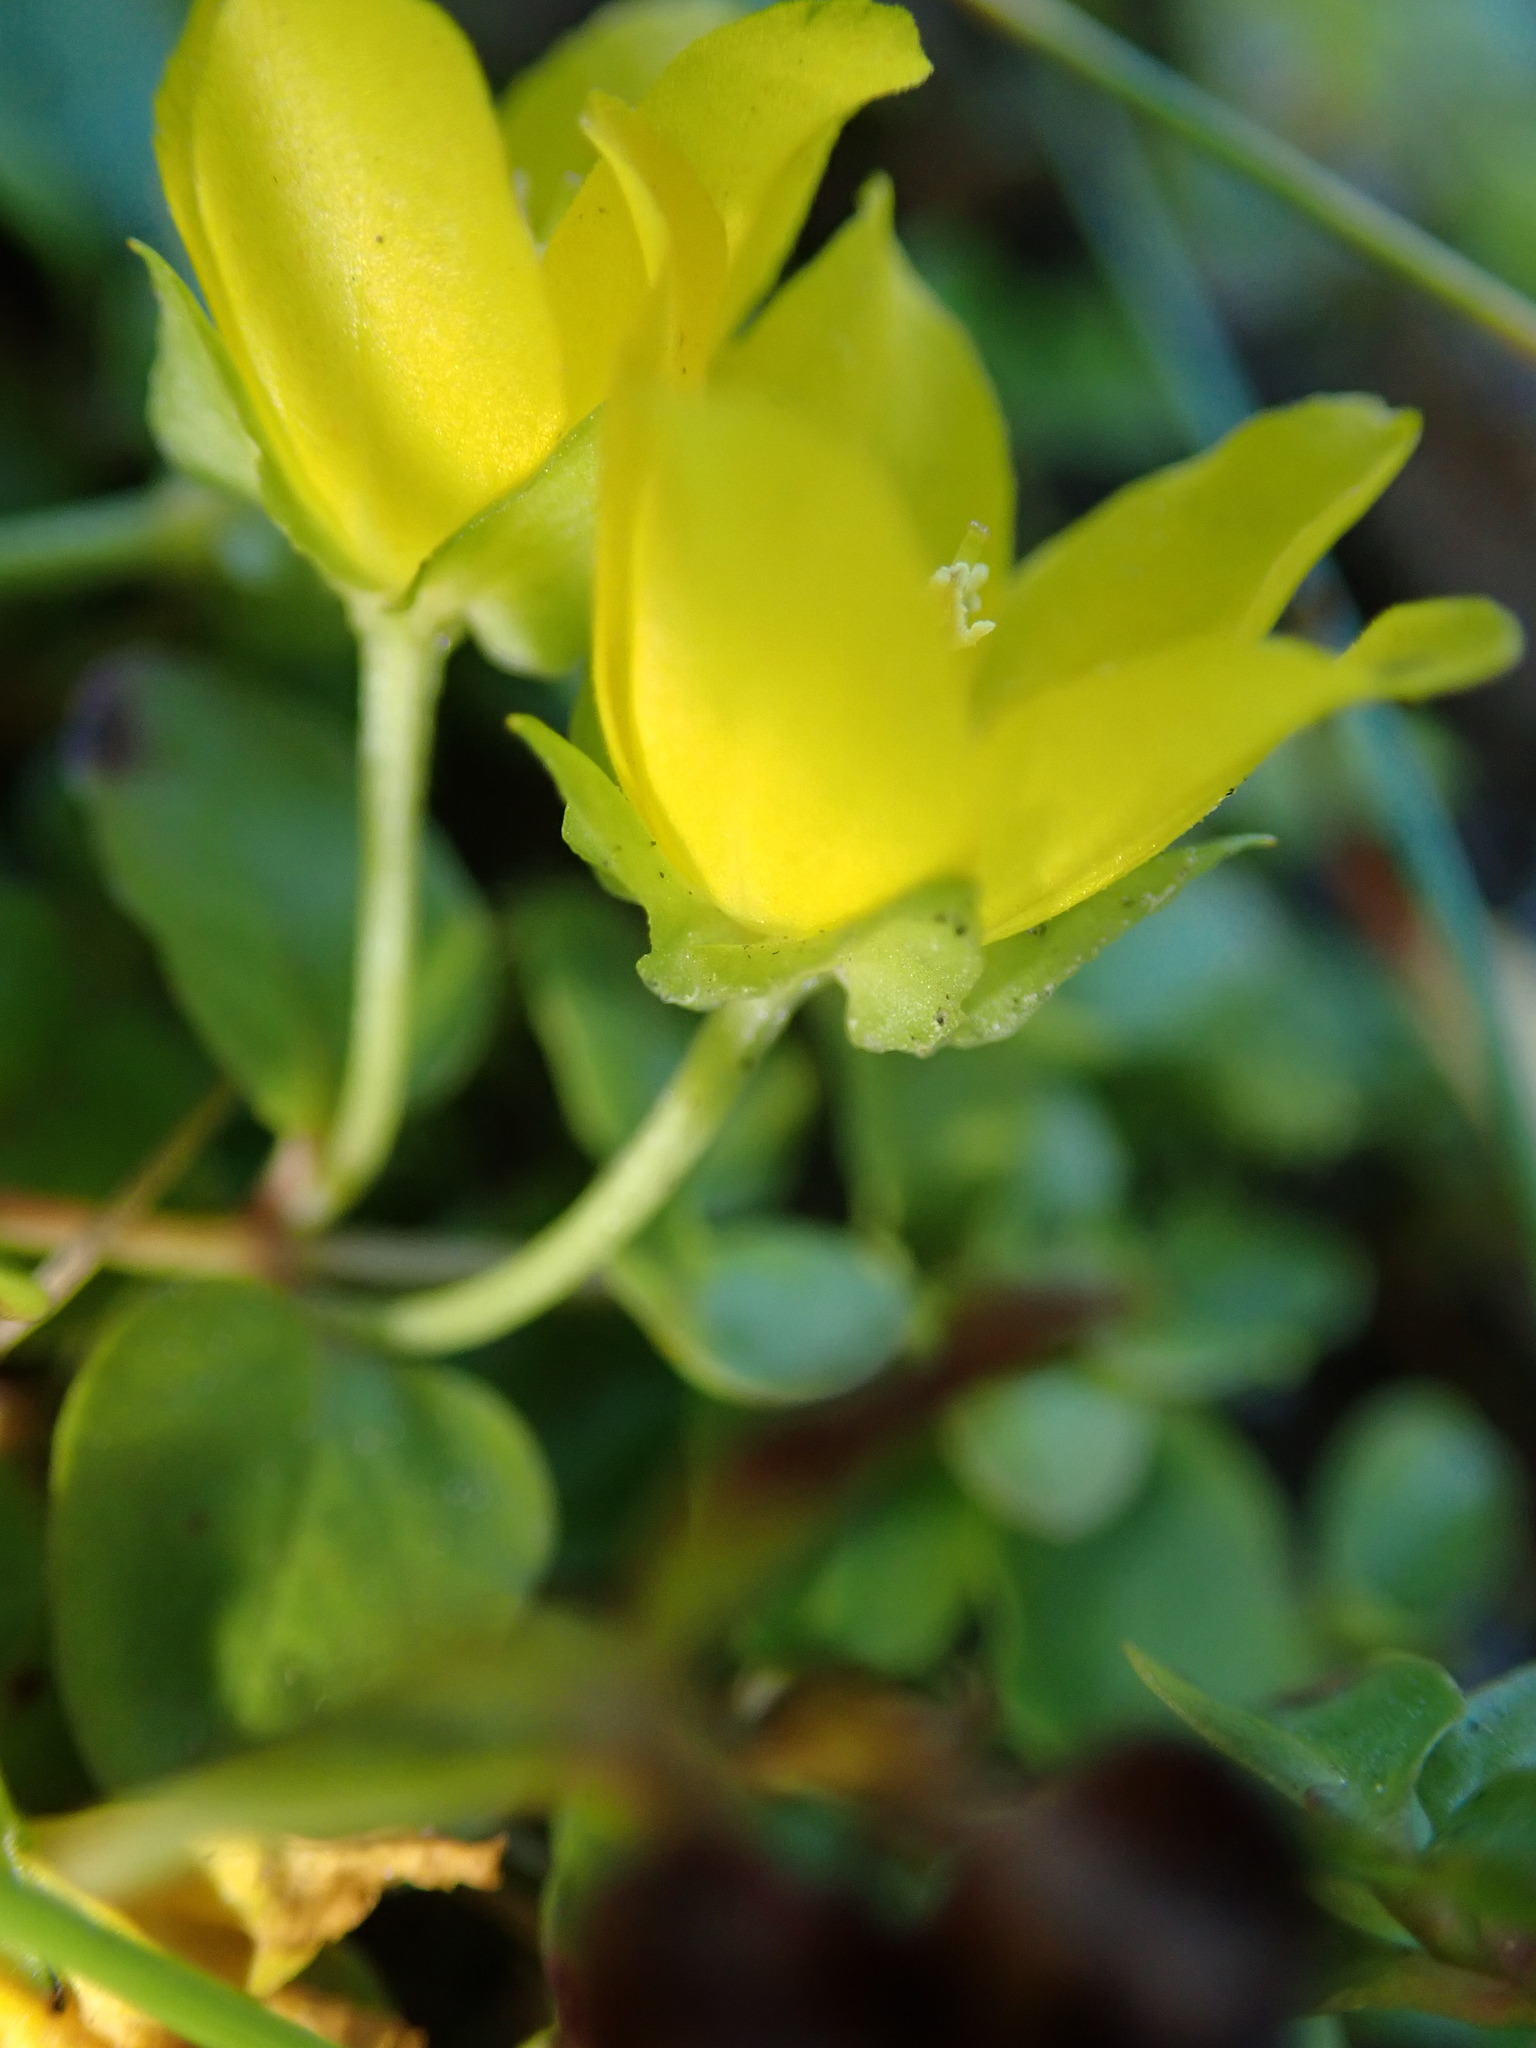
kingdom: Plantae
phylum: Tracheophyta
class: Magnoliopsida
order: Ericales
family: Primulaceae
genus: Lysimachia
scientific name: Lysimachia nummularia
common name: Moneywort
